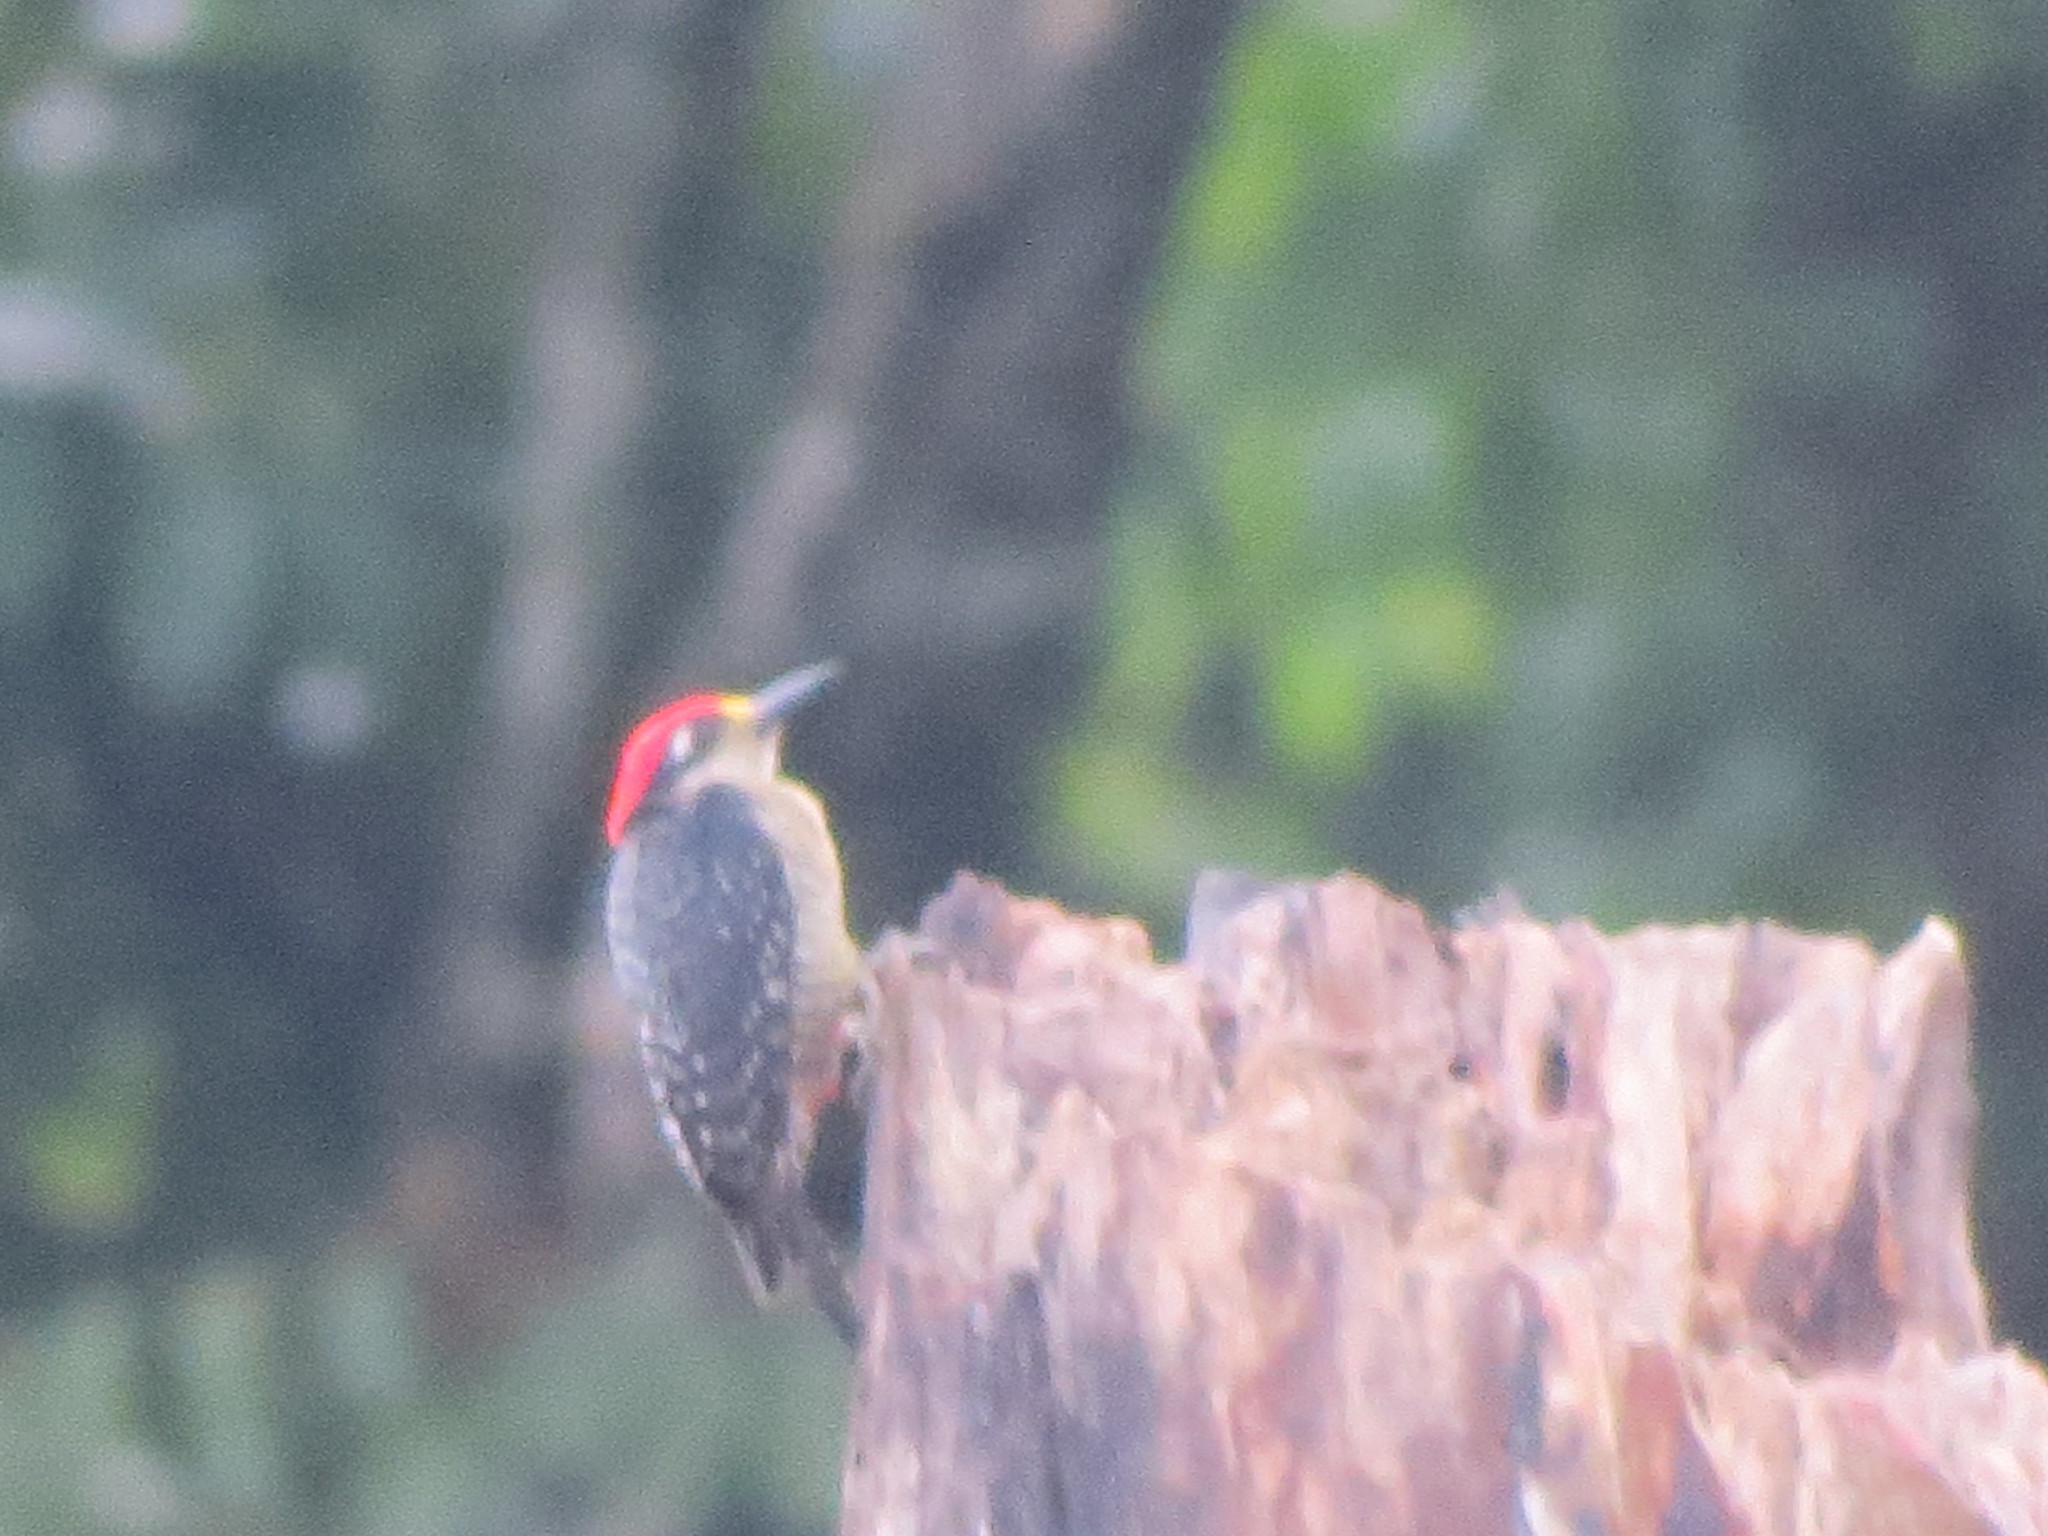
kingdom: Animalia
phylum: Chordata
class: Aves
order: Piciformes
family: Picidae
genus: Melanerpes
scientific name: Melanerpes pucherani
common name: Black-cheeked woodpecker
